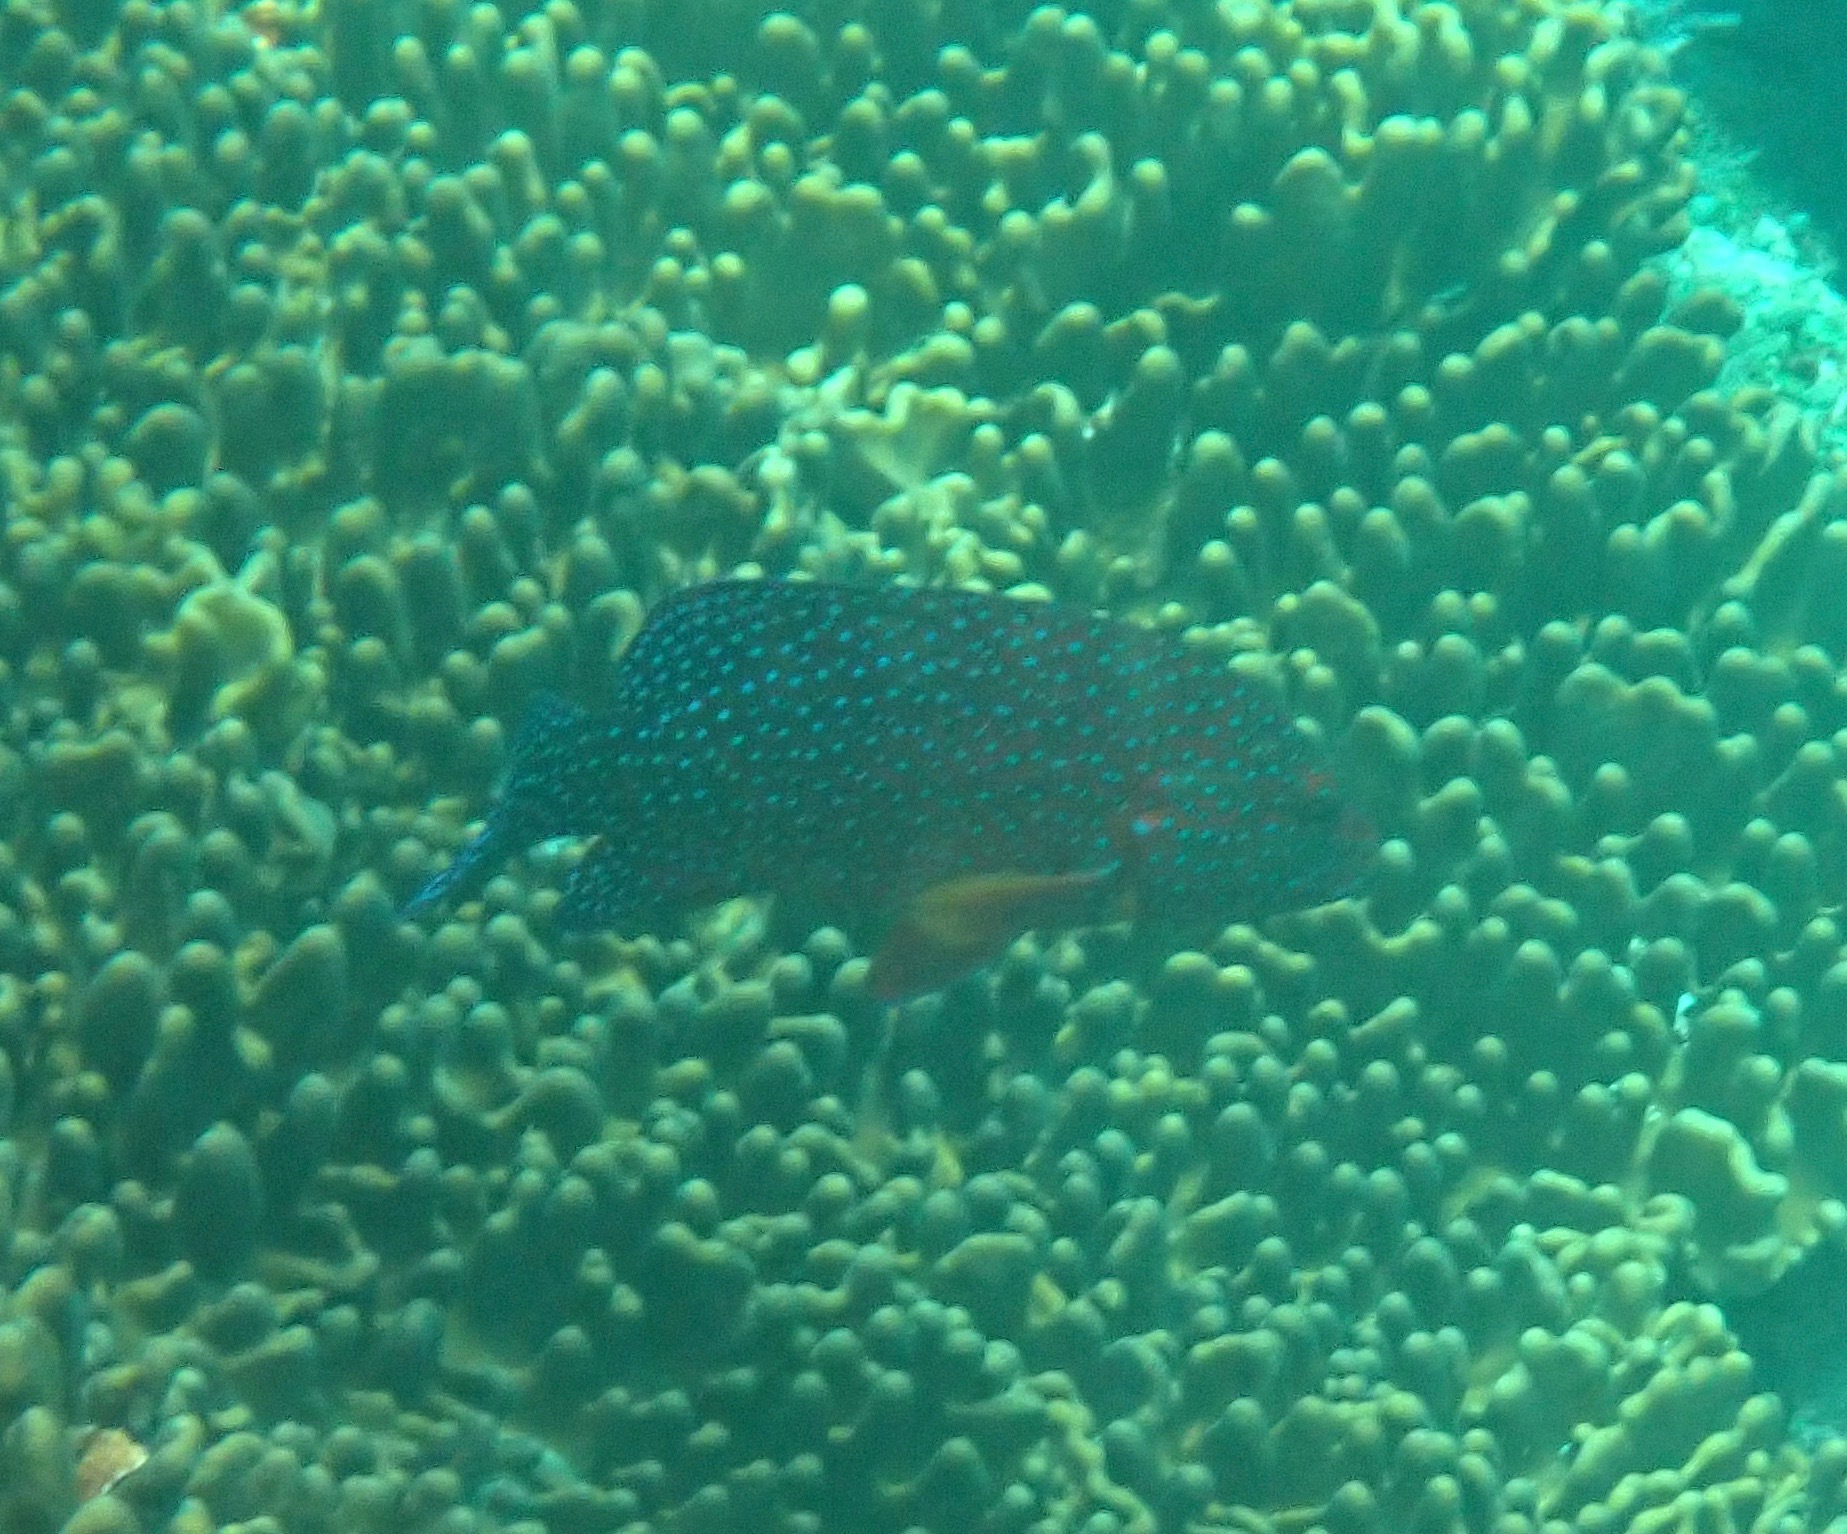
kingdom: Animalia
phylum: Chordata
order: Perciformes
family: Serranidae
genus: Cephalopholis
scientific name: Cephalopholis miniata
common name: Coral hind
